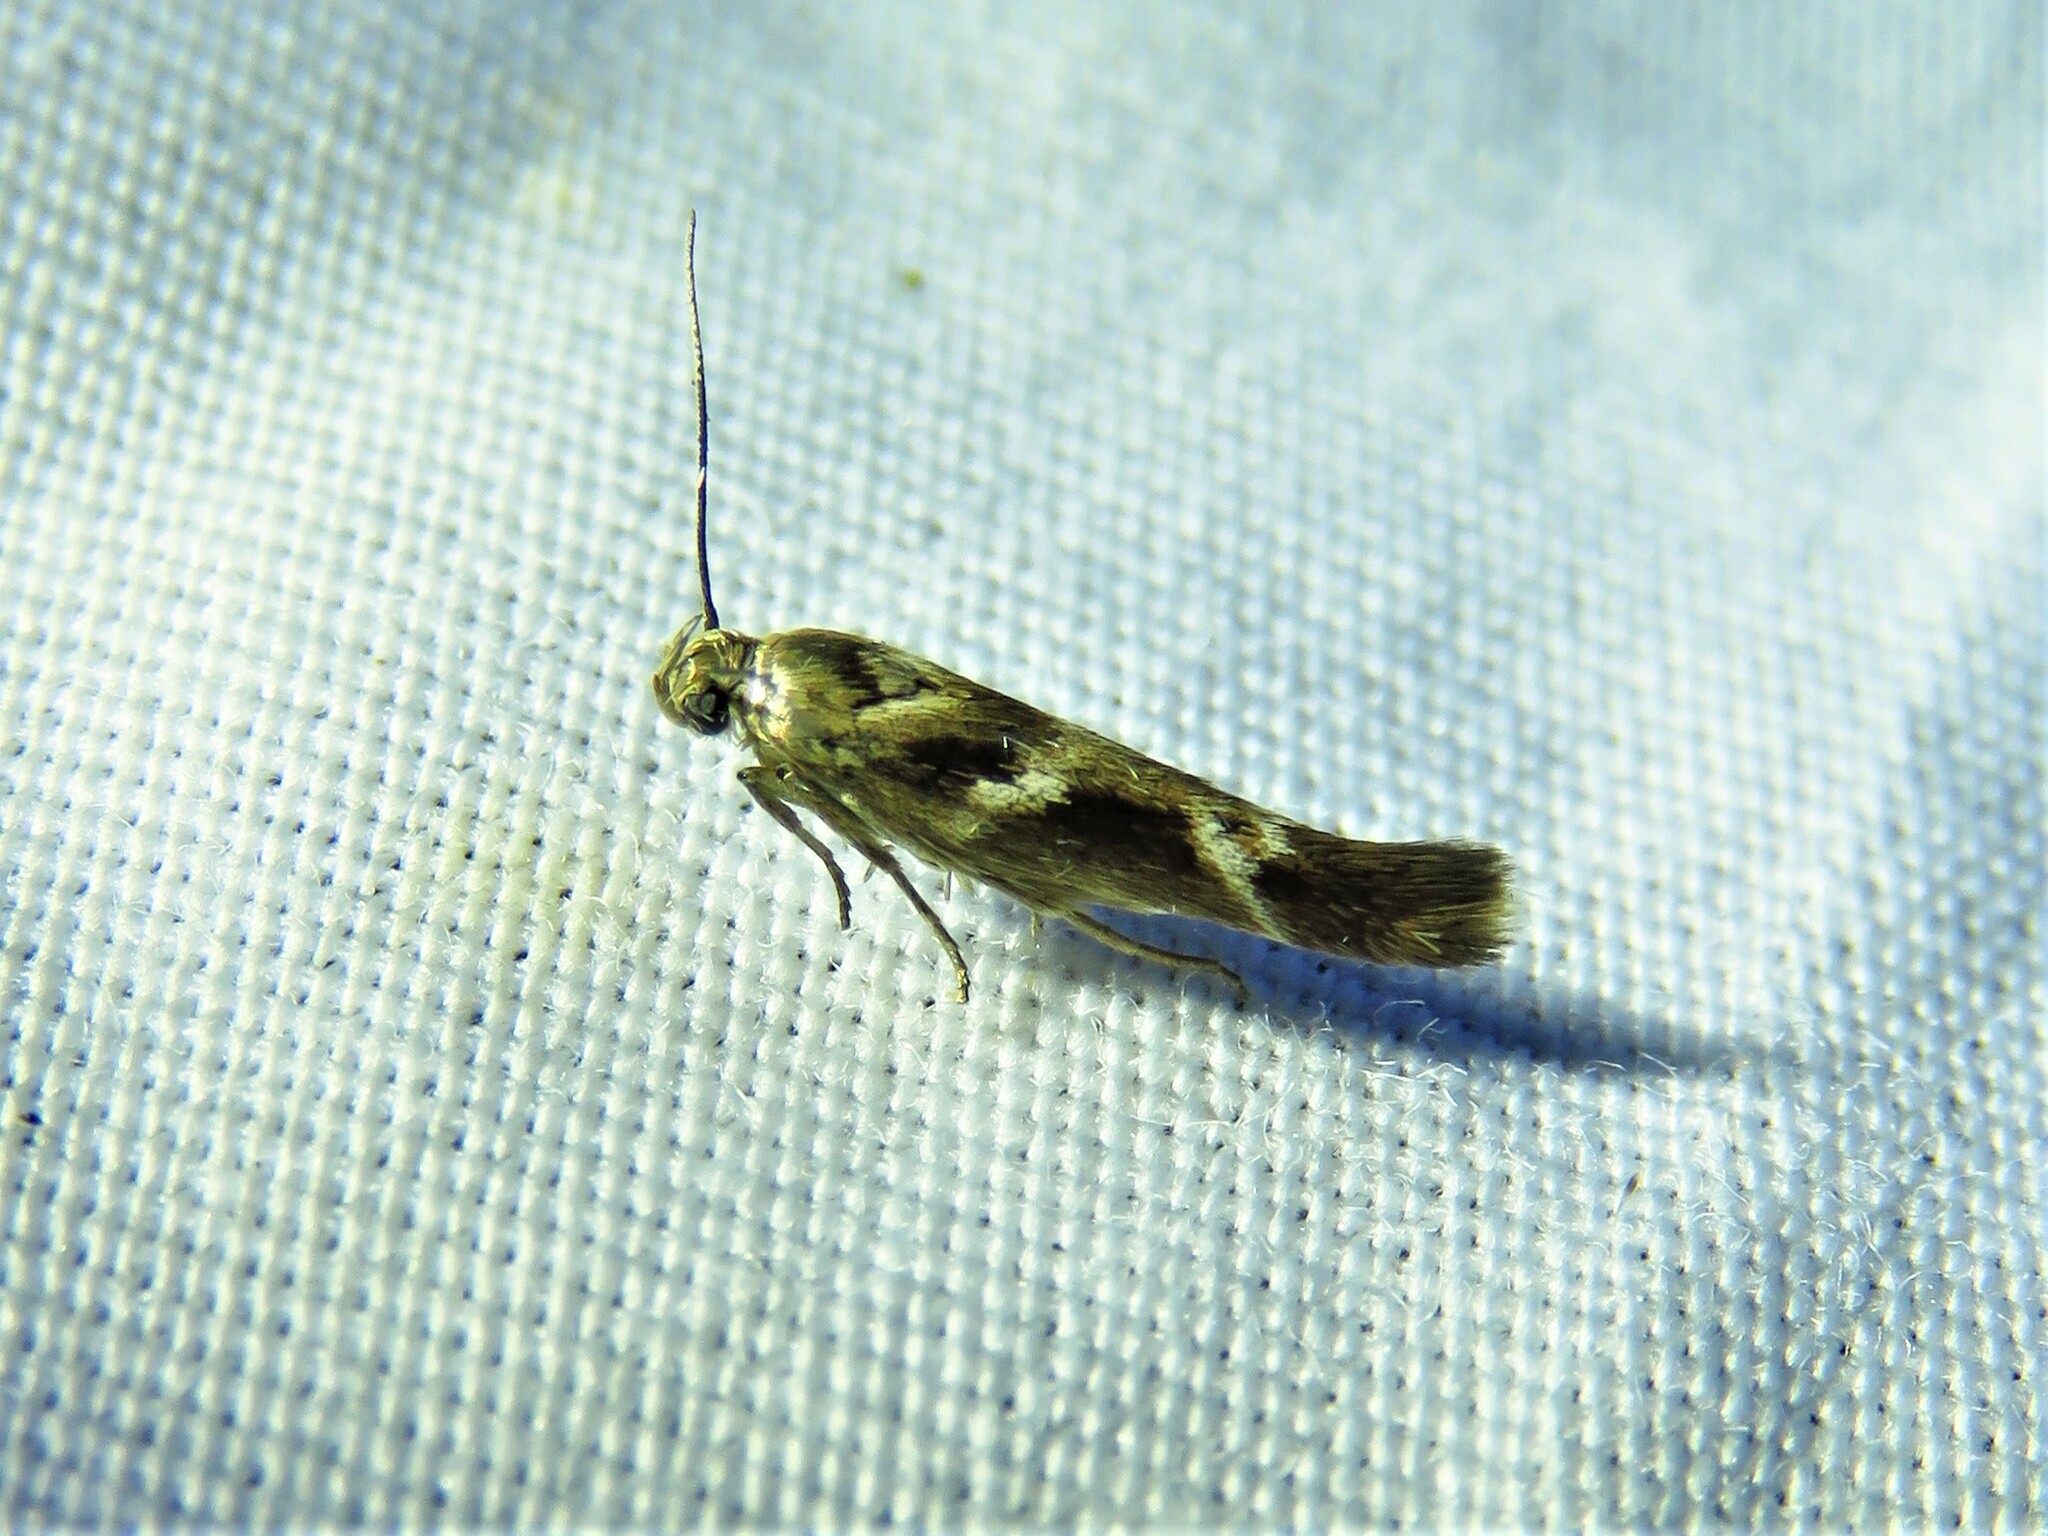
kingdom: Animalia
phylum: Arthropoda
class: Insecta
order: Lepidoptera
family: Scythrididae
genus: Scythris
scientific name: Scythris trivinctella
